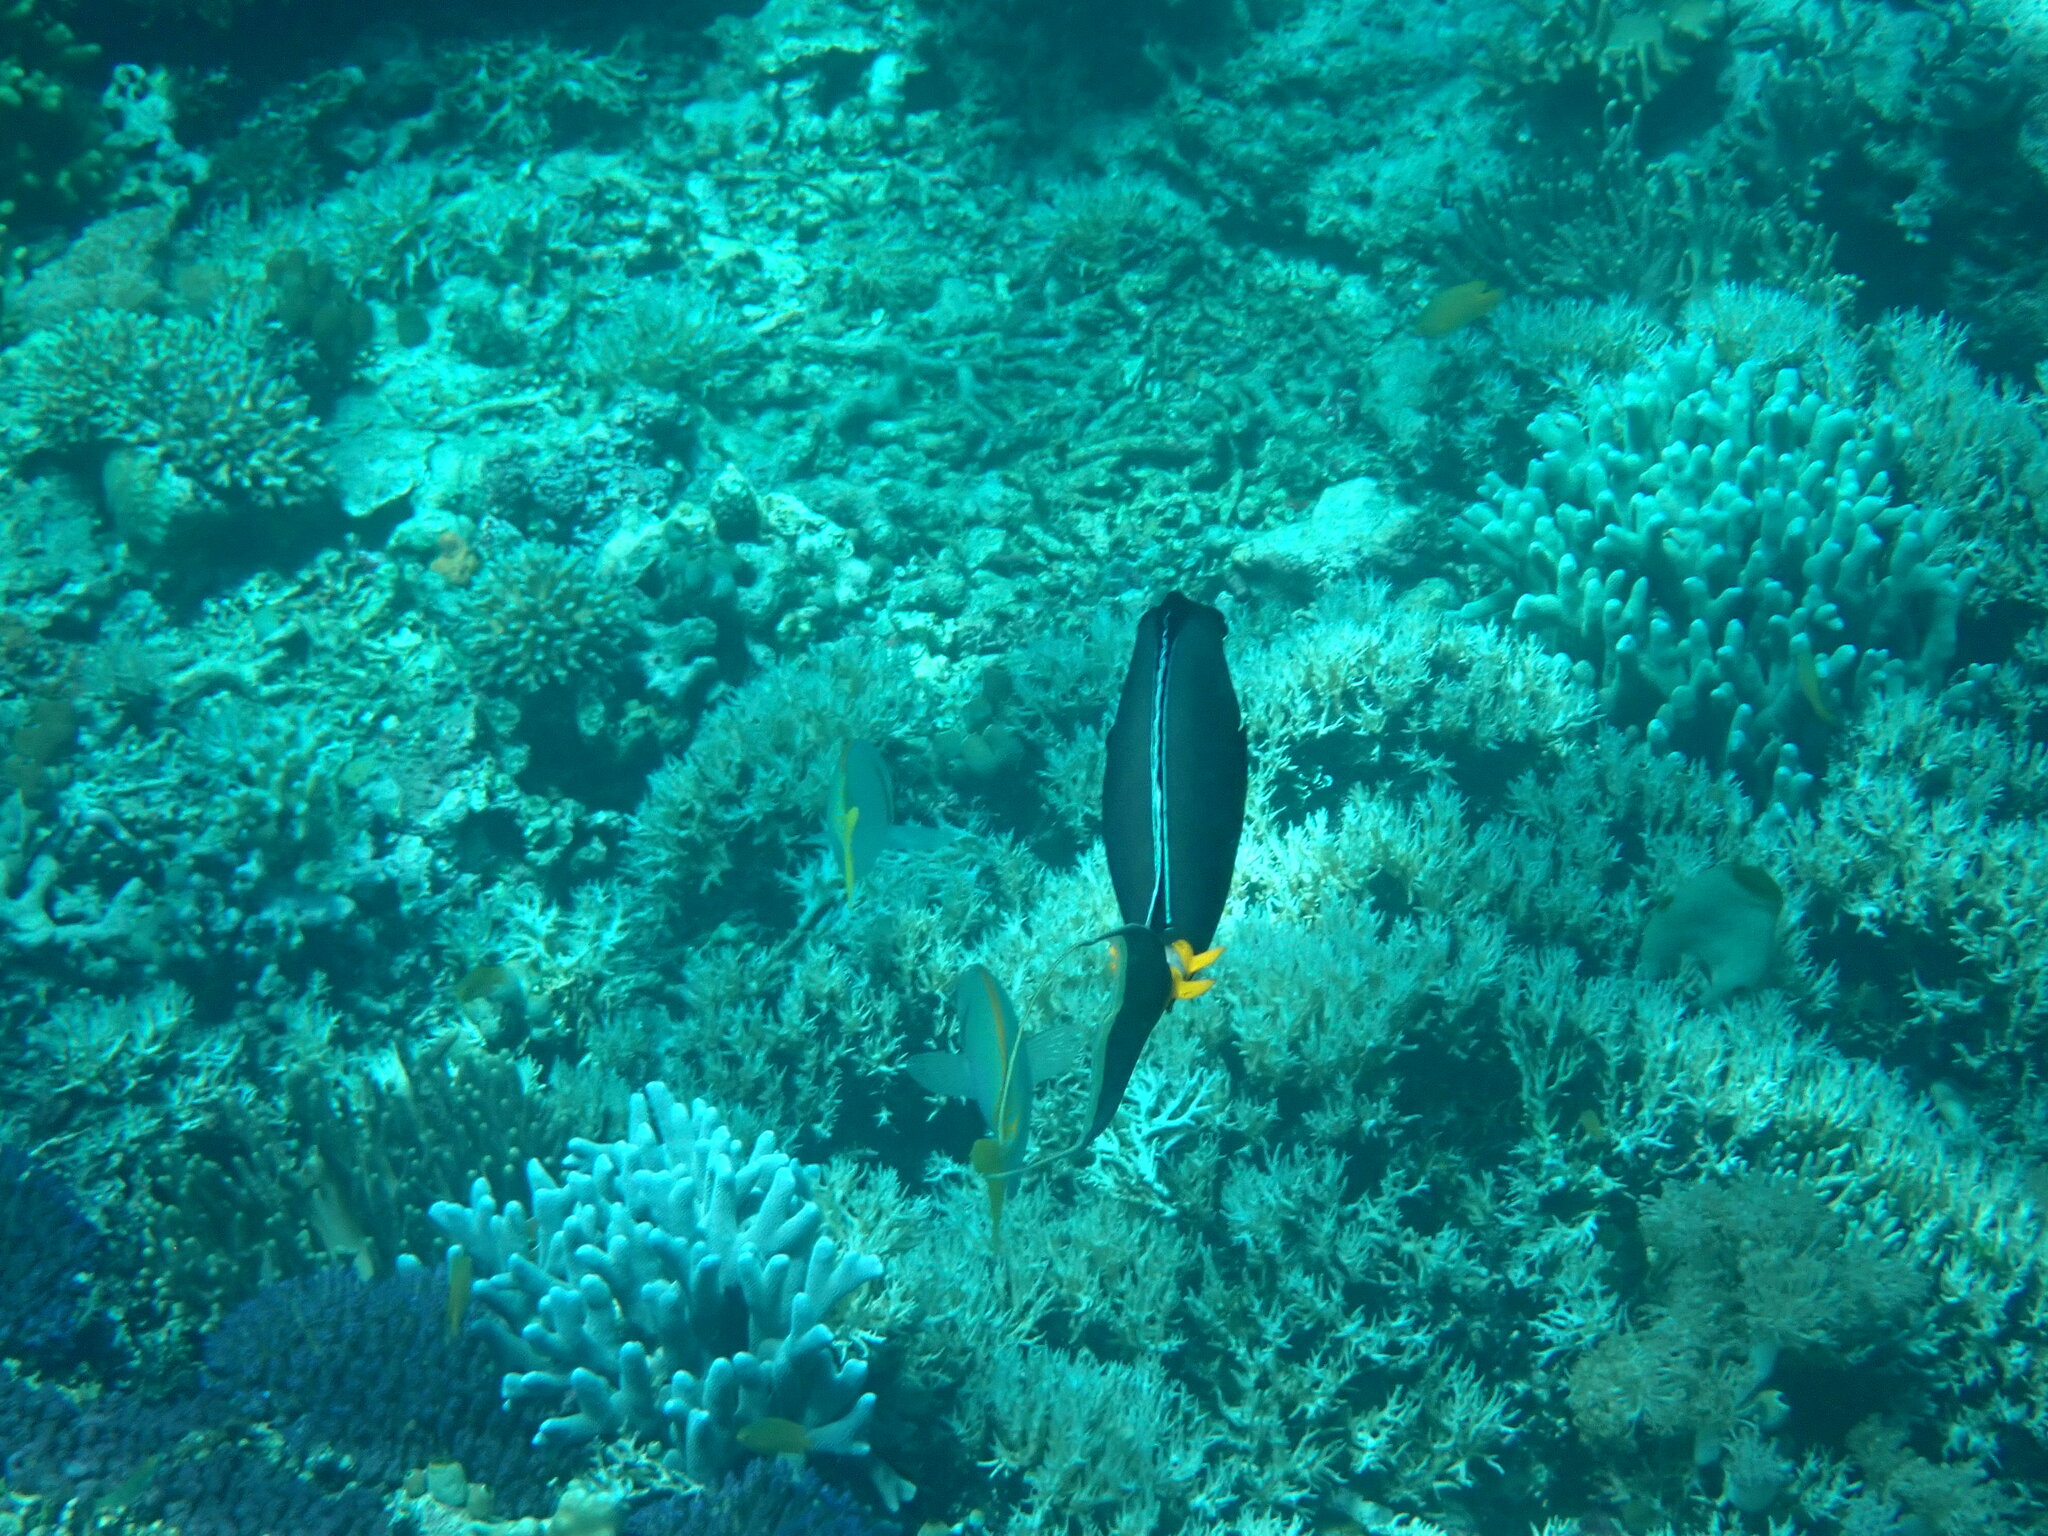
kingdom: Animalia
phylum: Chordata
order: Perciformes
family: Acanthuridae
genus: Naso
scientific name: Naso lituratus
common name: Orangespine unicornfish
